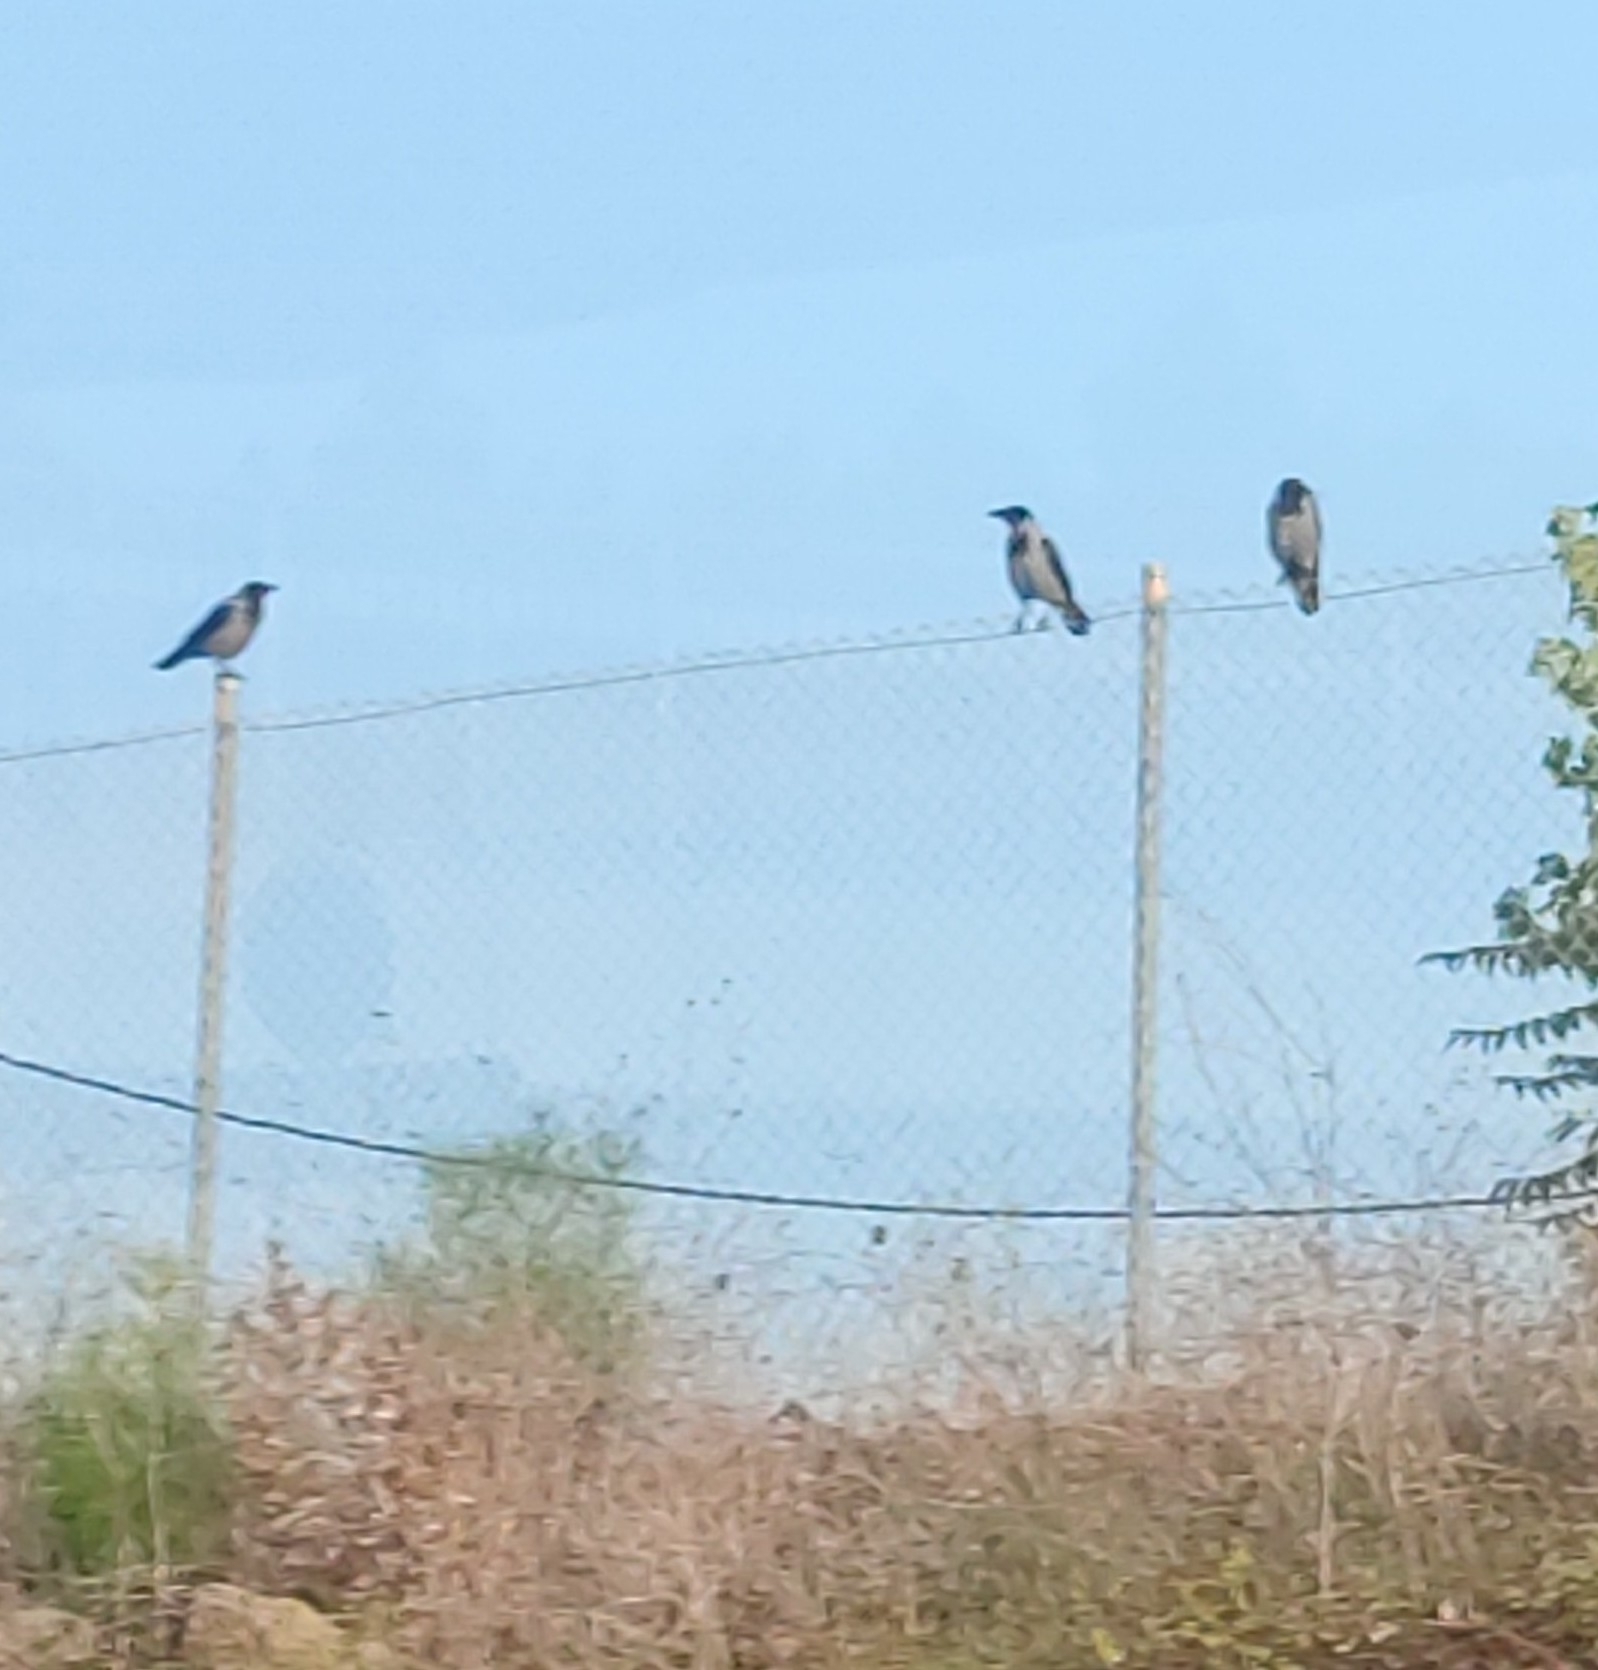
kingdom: Animalia
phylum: Chordata
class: Aves
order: Passeriformes
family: Corvidae
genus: Corvus
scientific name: Corvus cornix
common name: Hooded crow
